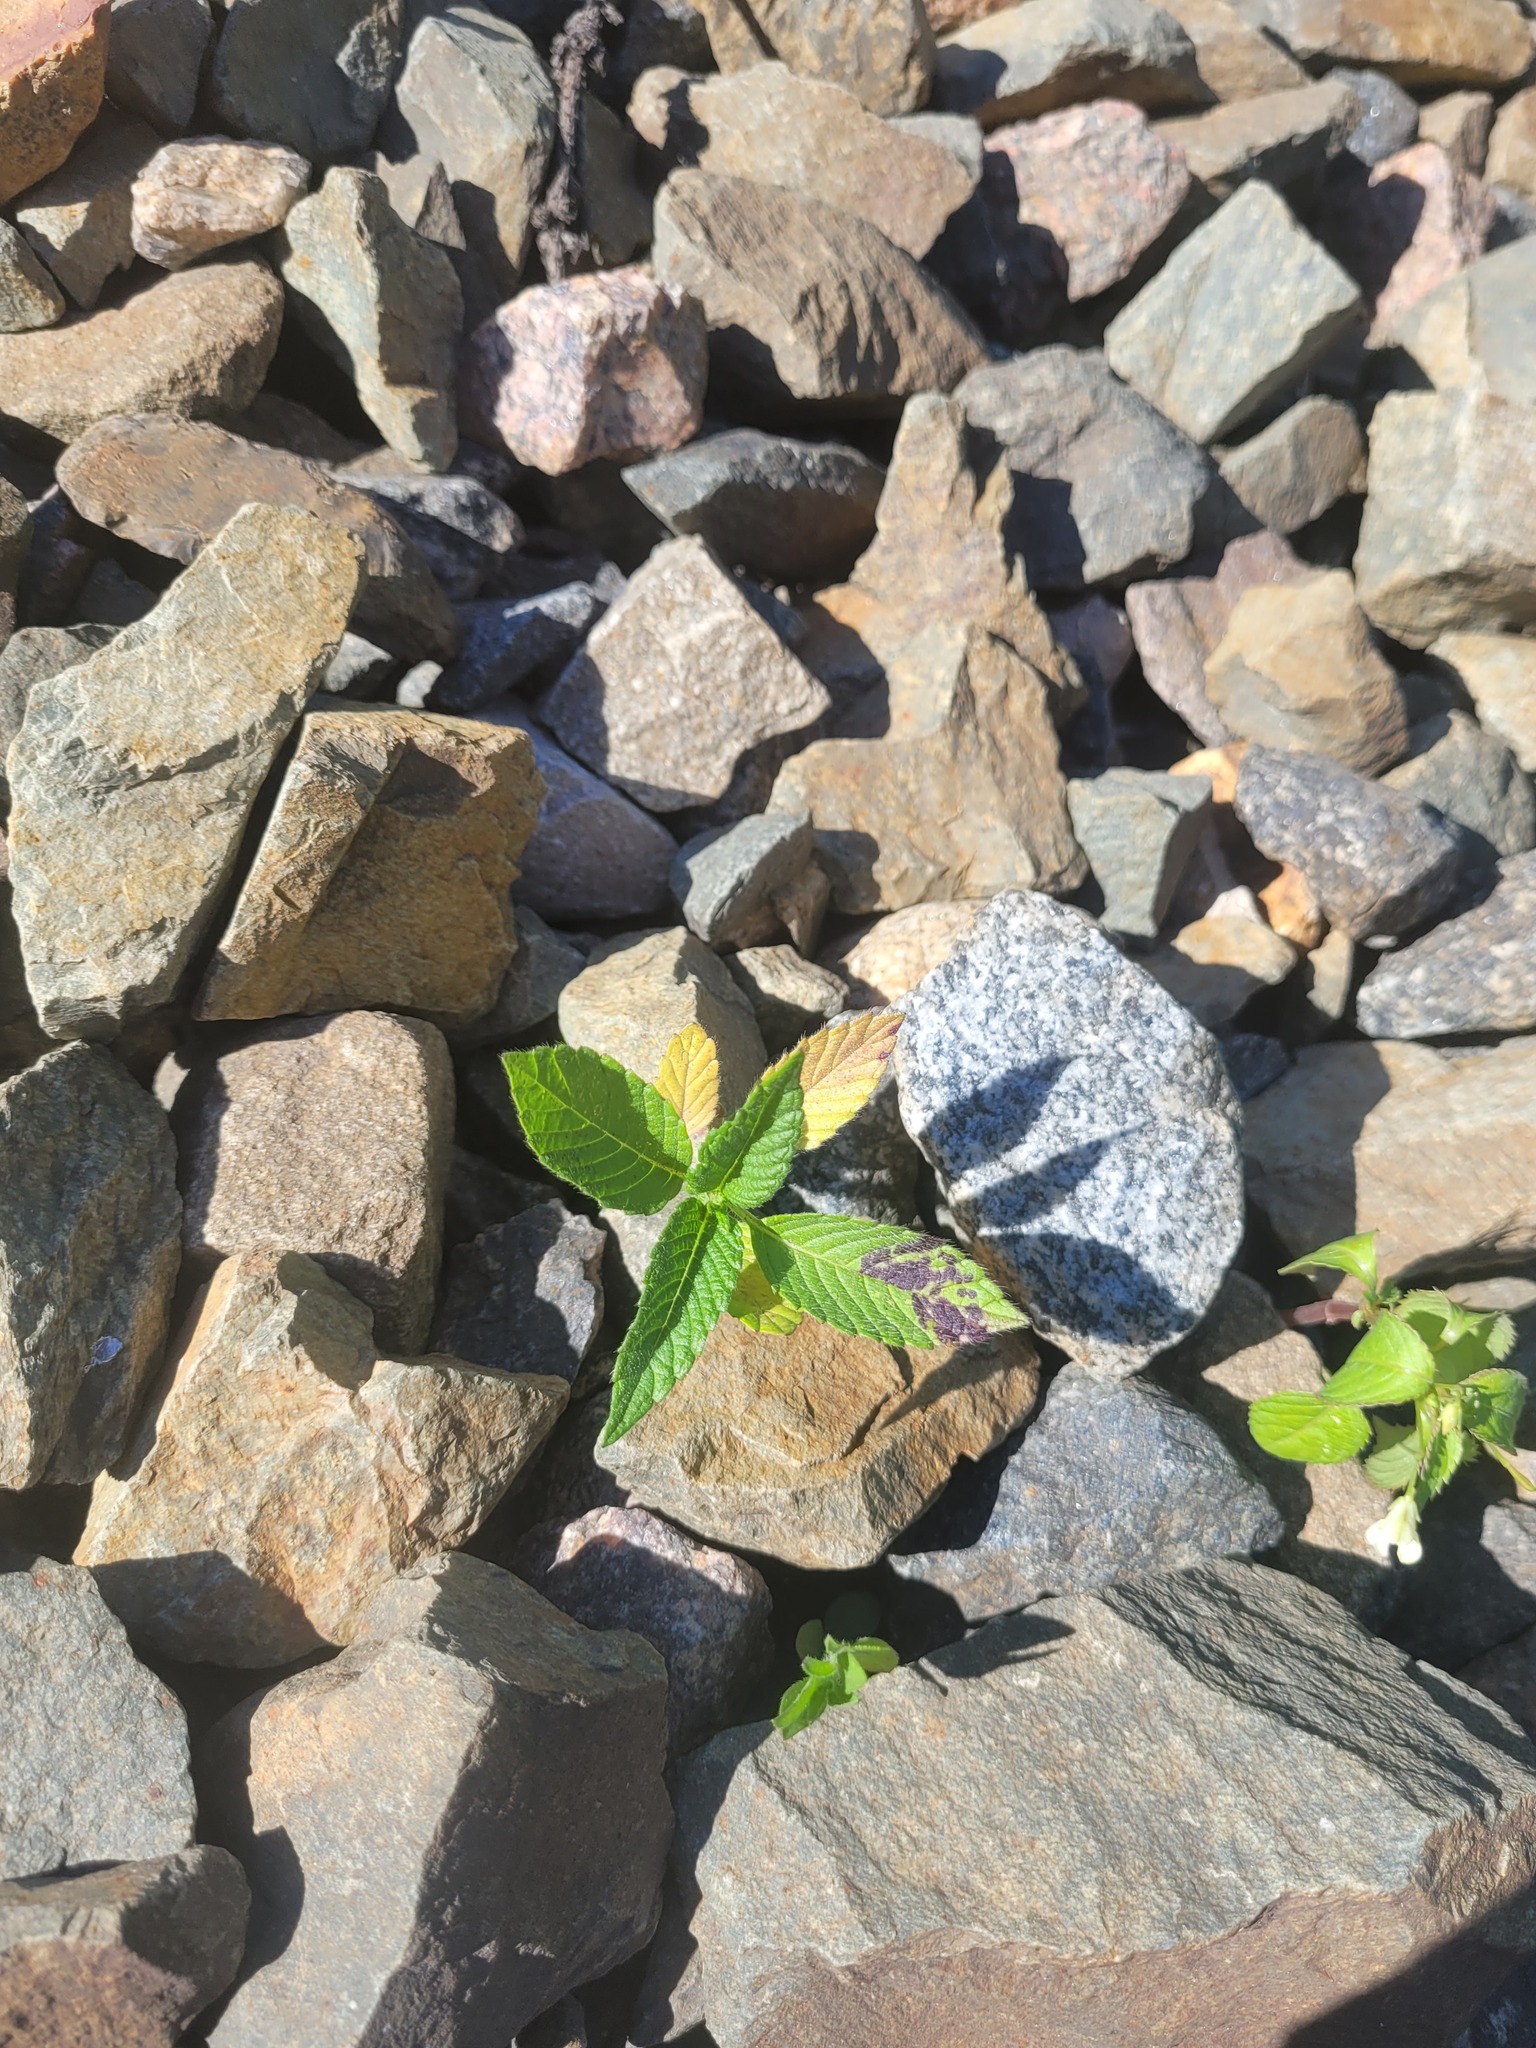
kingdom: Plantae
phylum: Tracheophyta
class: Magnoliopsida
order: Lamiales
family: Lamiaceae
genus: Galeopsis
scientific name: Galeopsis
